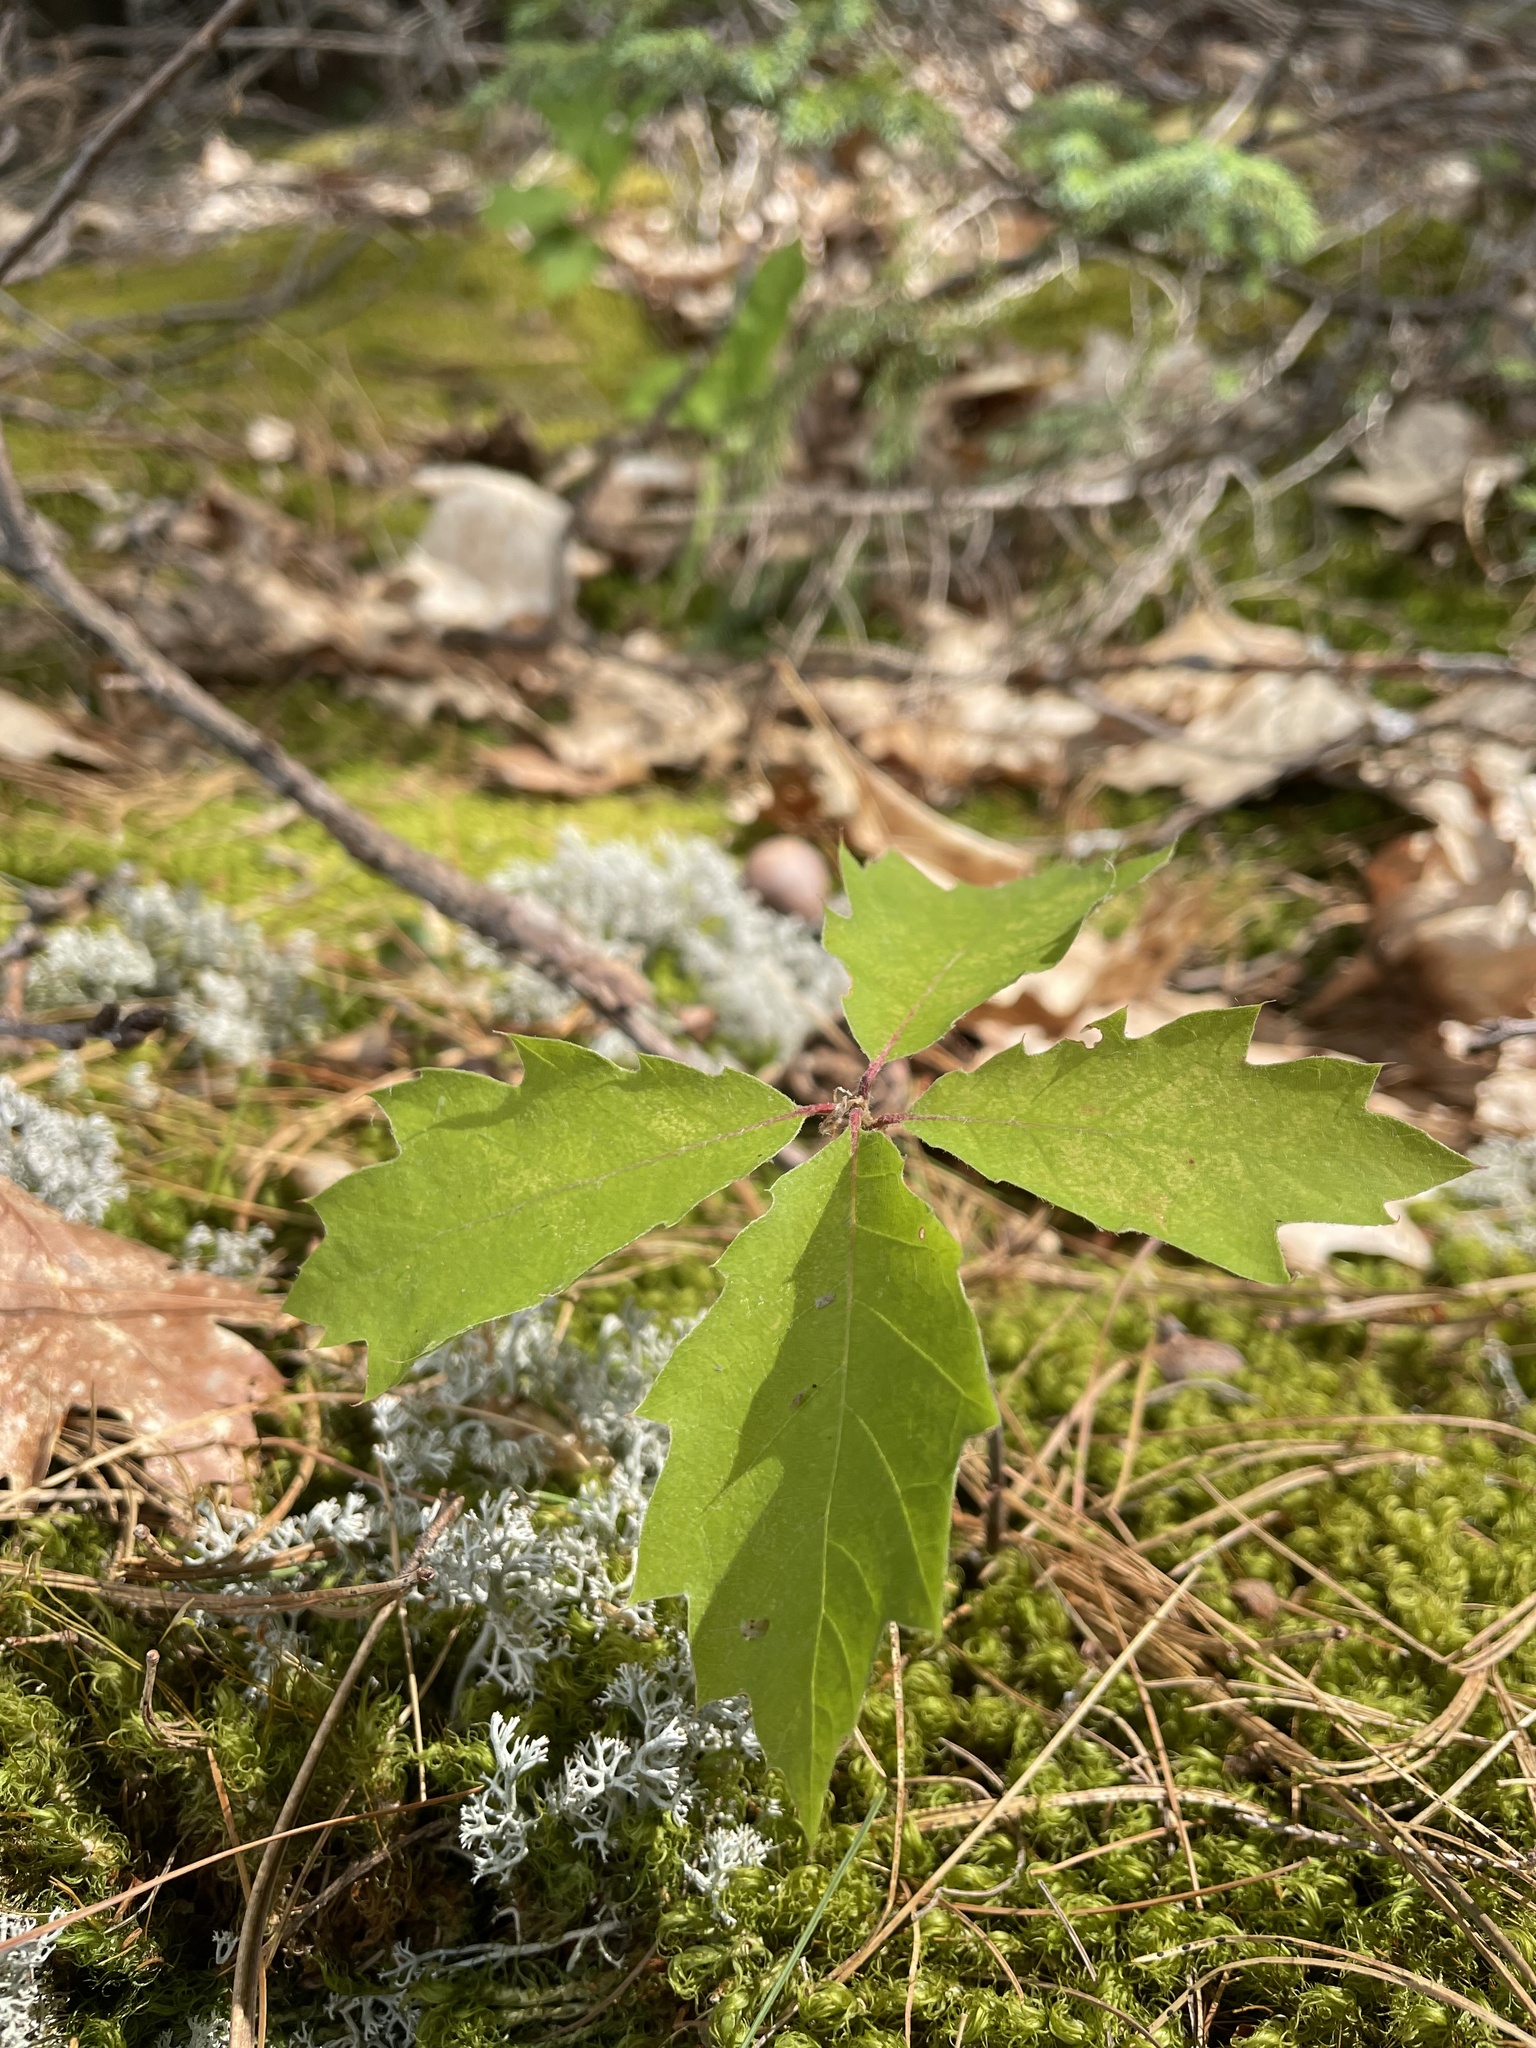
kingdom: Plantae
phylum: Tracheophyta
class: Magnoliopsida
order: Fagales
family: Fagaceae
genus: Quercus
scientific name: Quercus rubra
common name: Red oak
